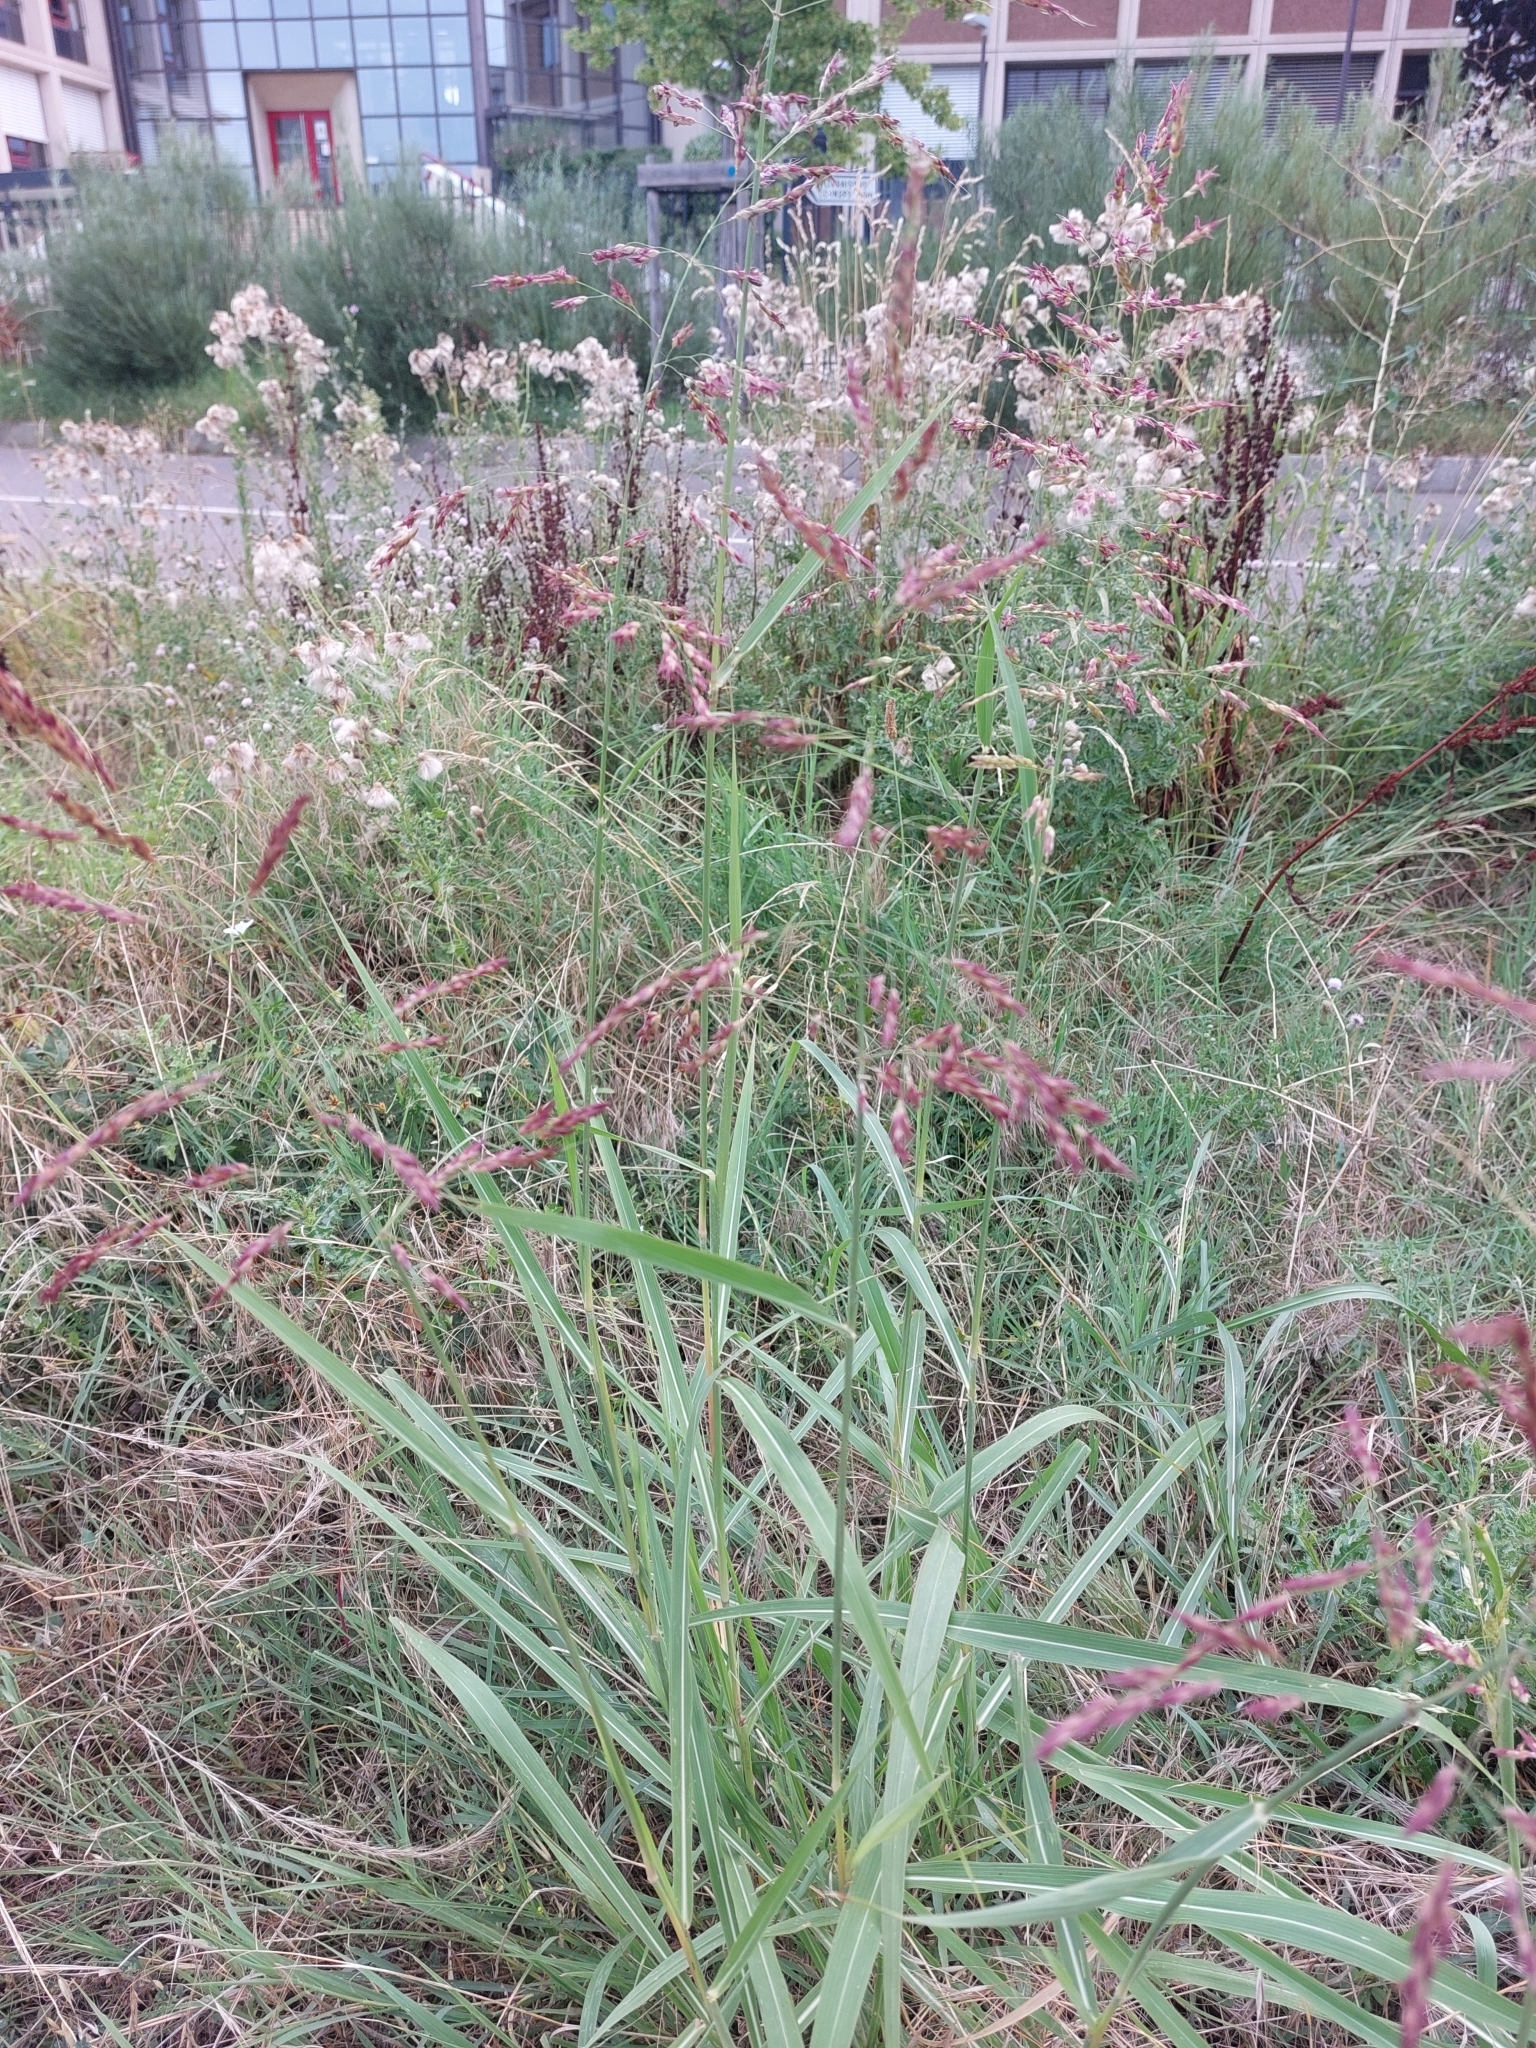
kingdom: Plantae
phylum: Tracheophyta
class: Liliopsida
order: Poales
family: Poaceae
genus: Sorghum
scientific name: Sorghum halepense
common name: Johnson-grass
